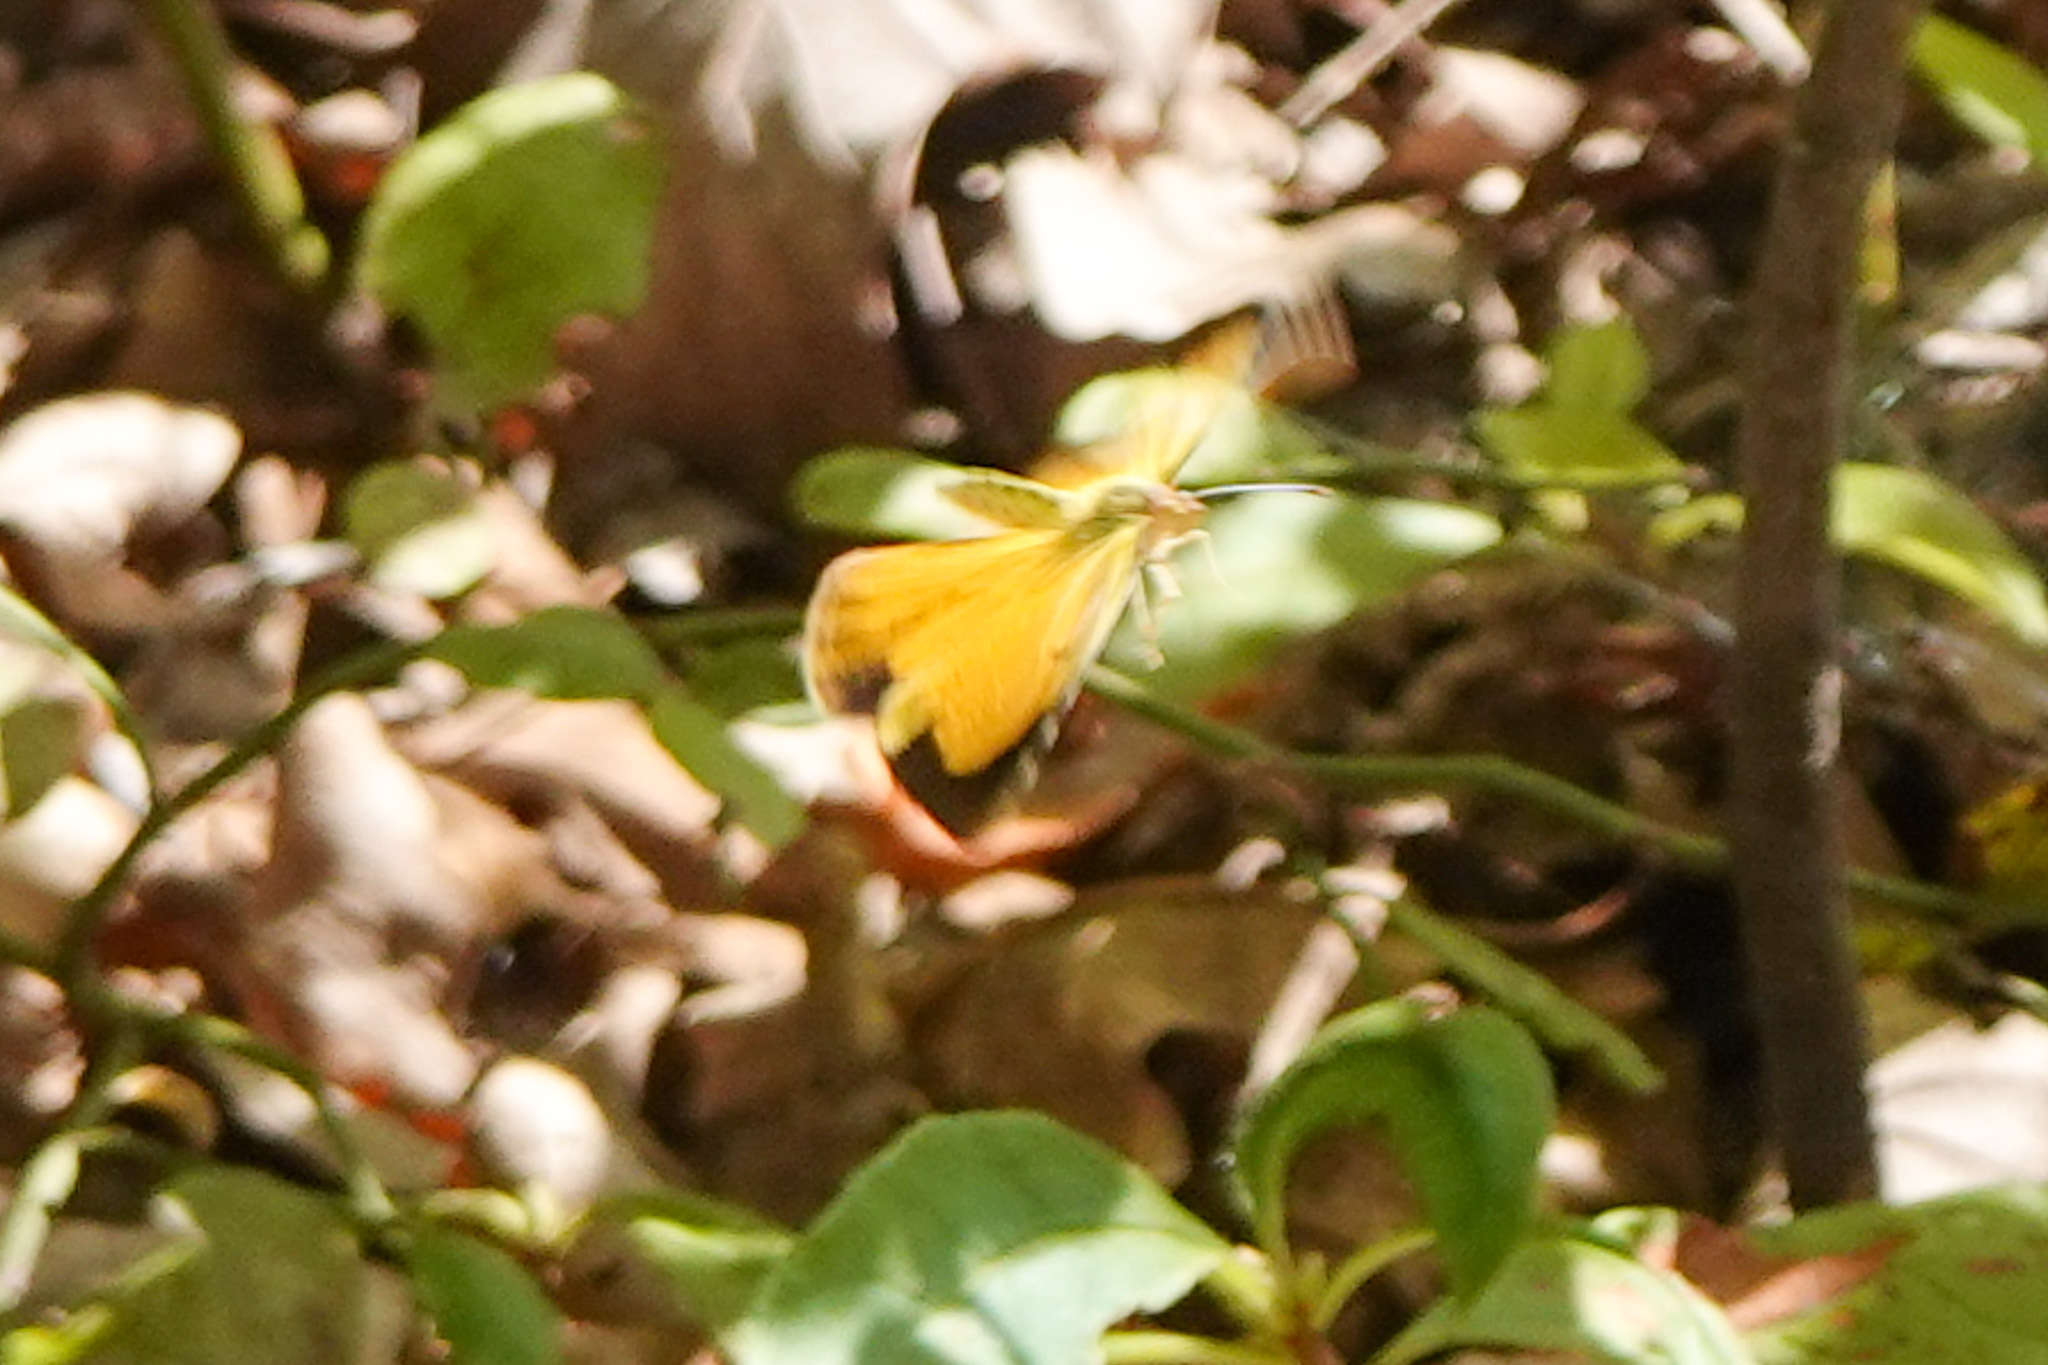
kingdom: Animalia
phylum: Arthropoda
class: Insecta
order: Lepidoptera
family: Pieridae
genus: Abaeis
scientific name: Abaeis nicippe
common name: Sleepy orange
